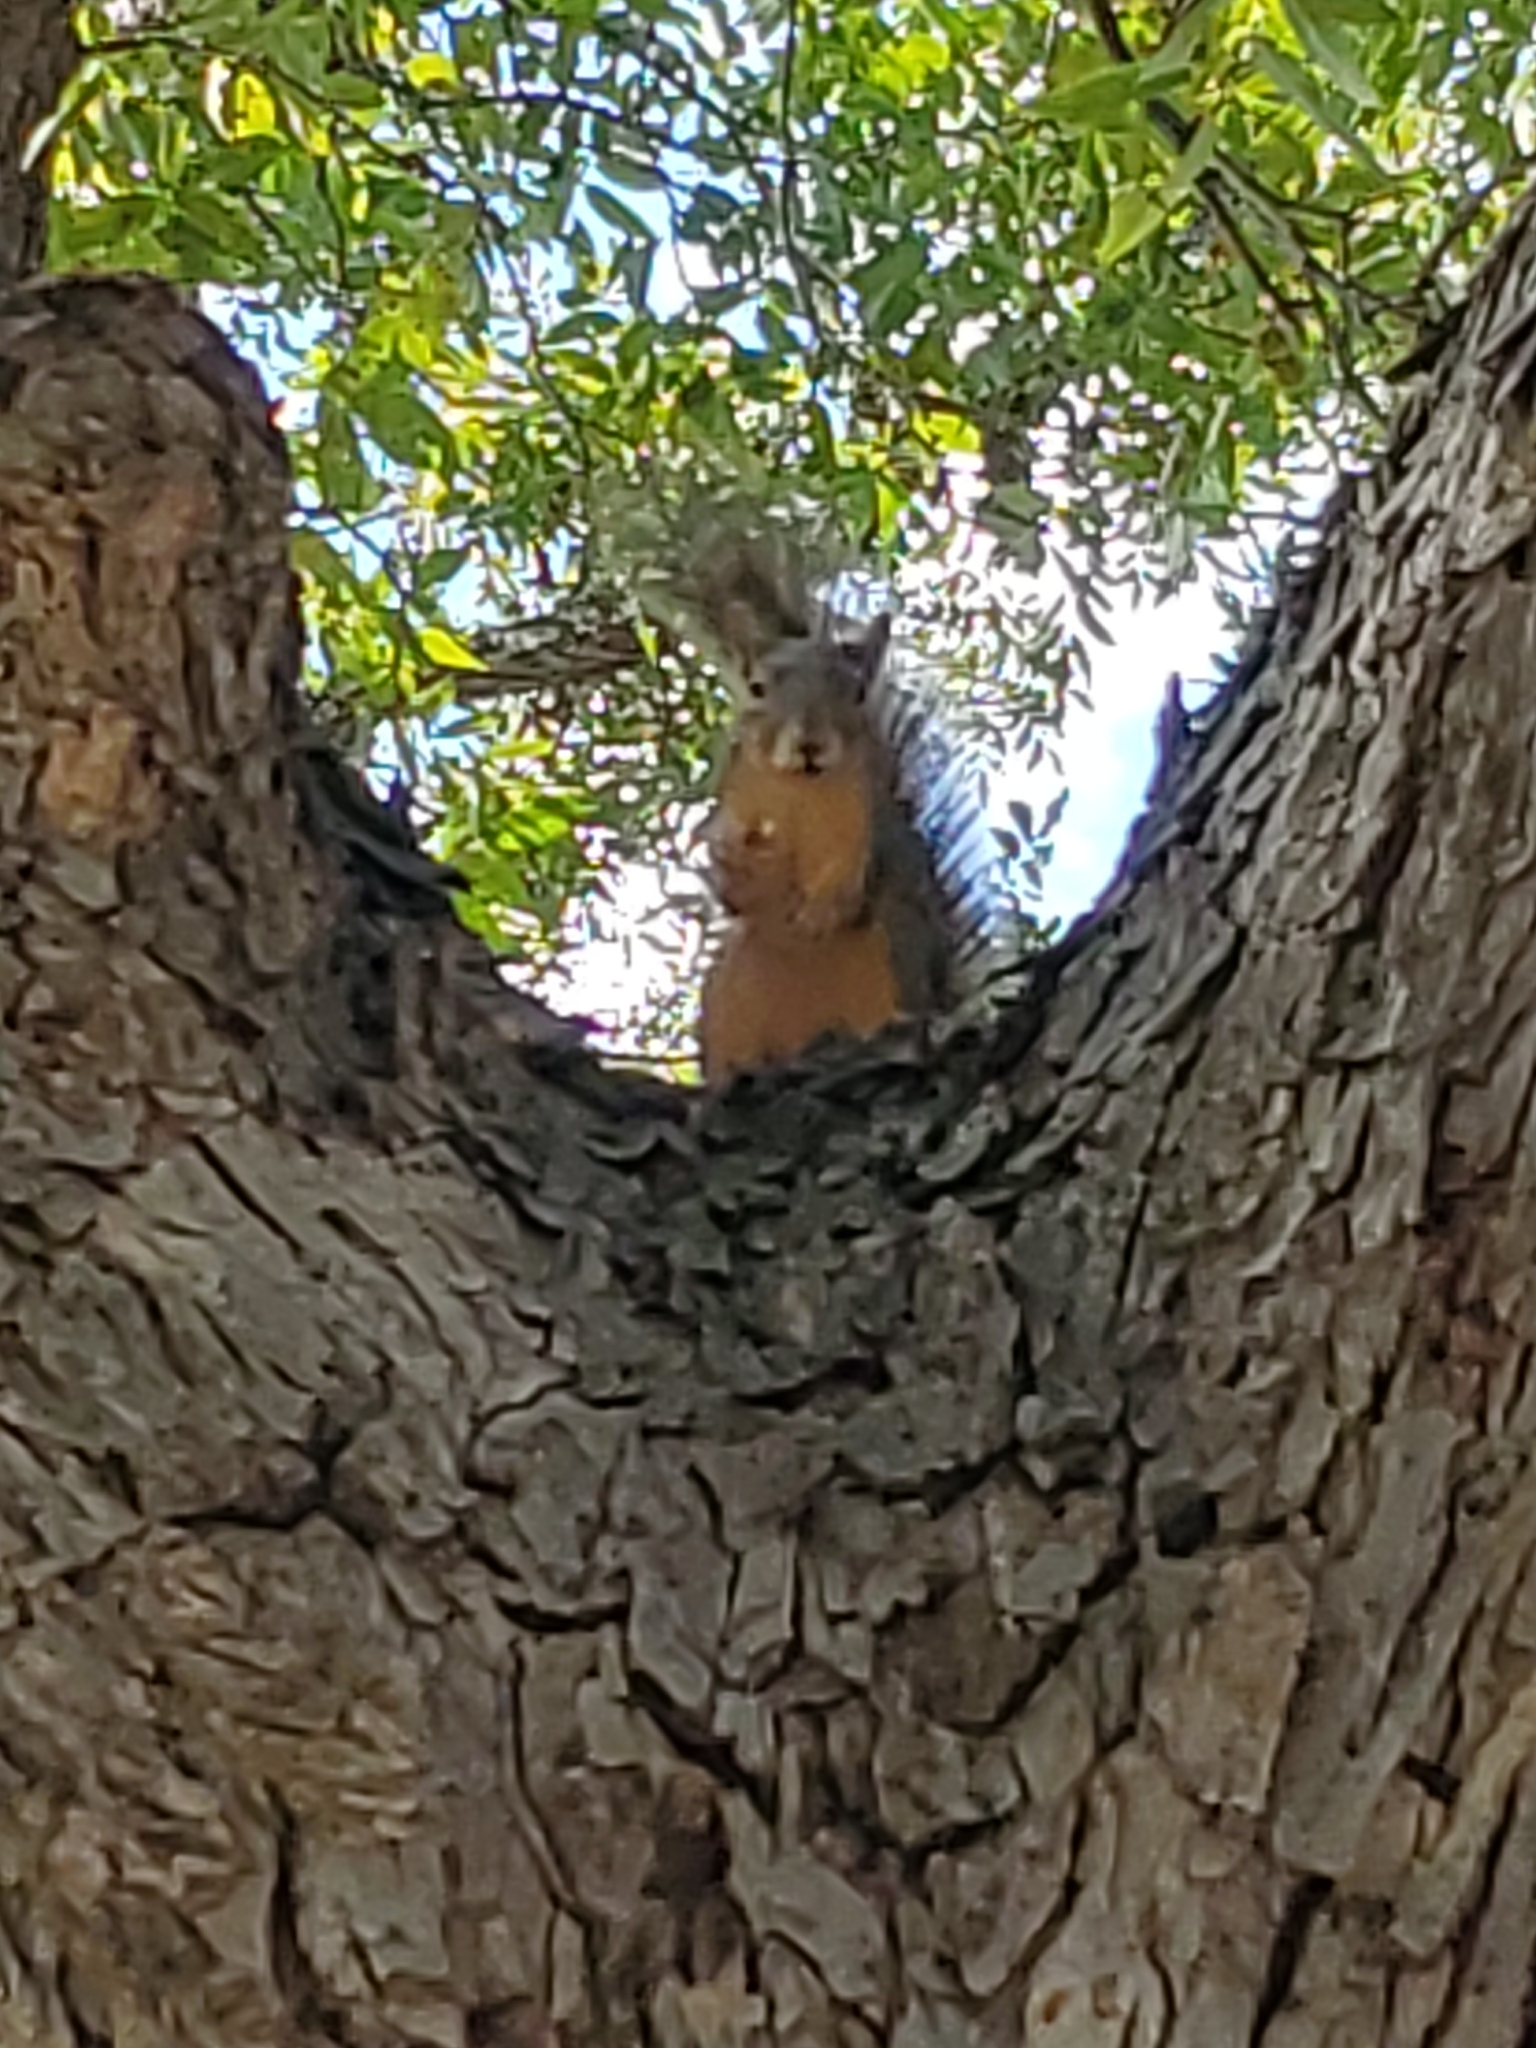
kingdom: Animalia
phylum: Chordata
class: Mammalia
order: Rodentia
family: Sciuridae
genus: Sciurus
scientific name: Sciurus niger
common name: Fox squirrel
